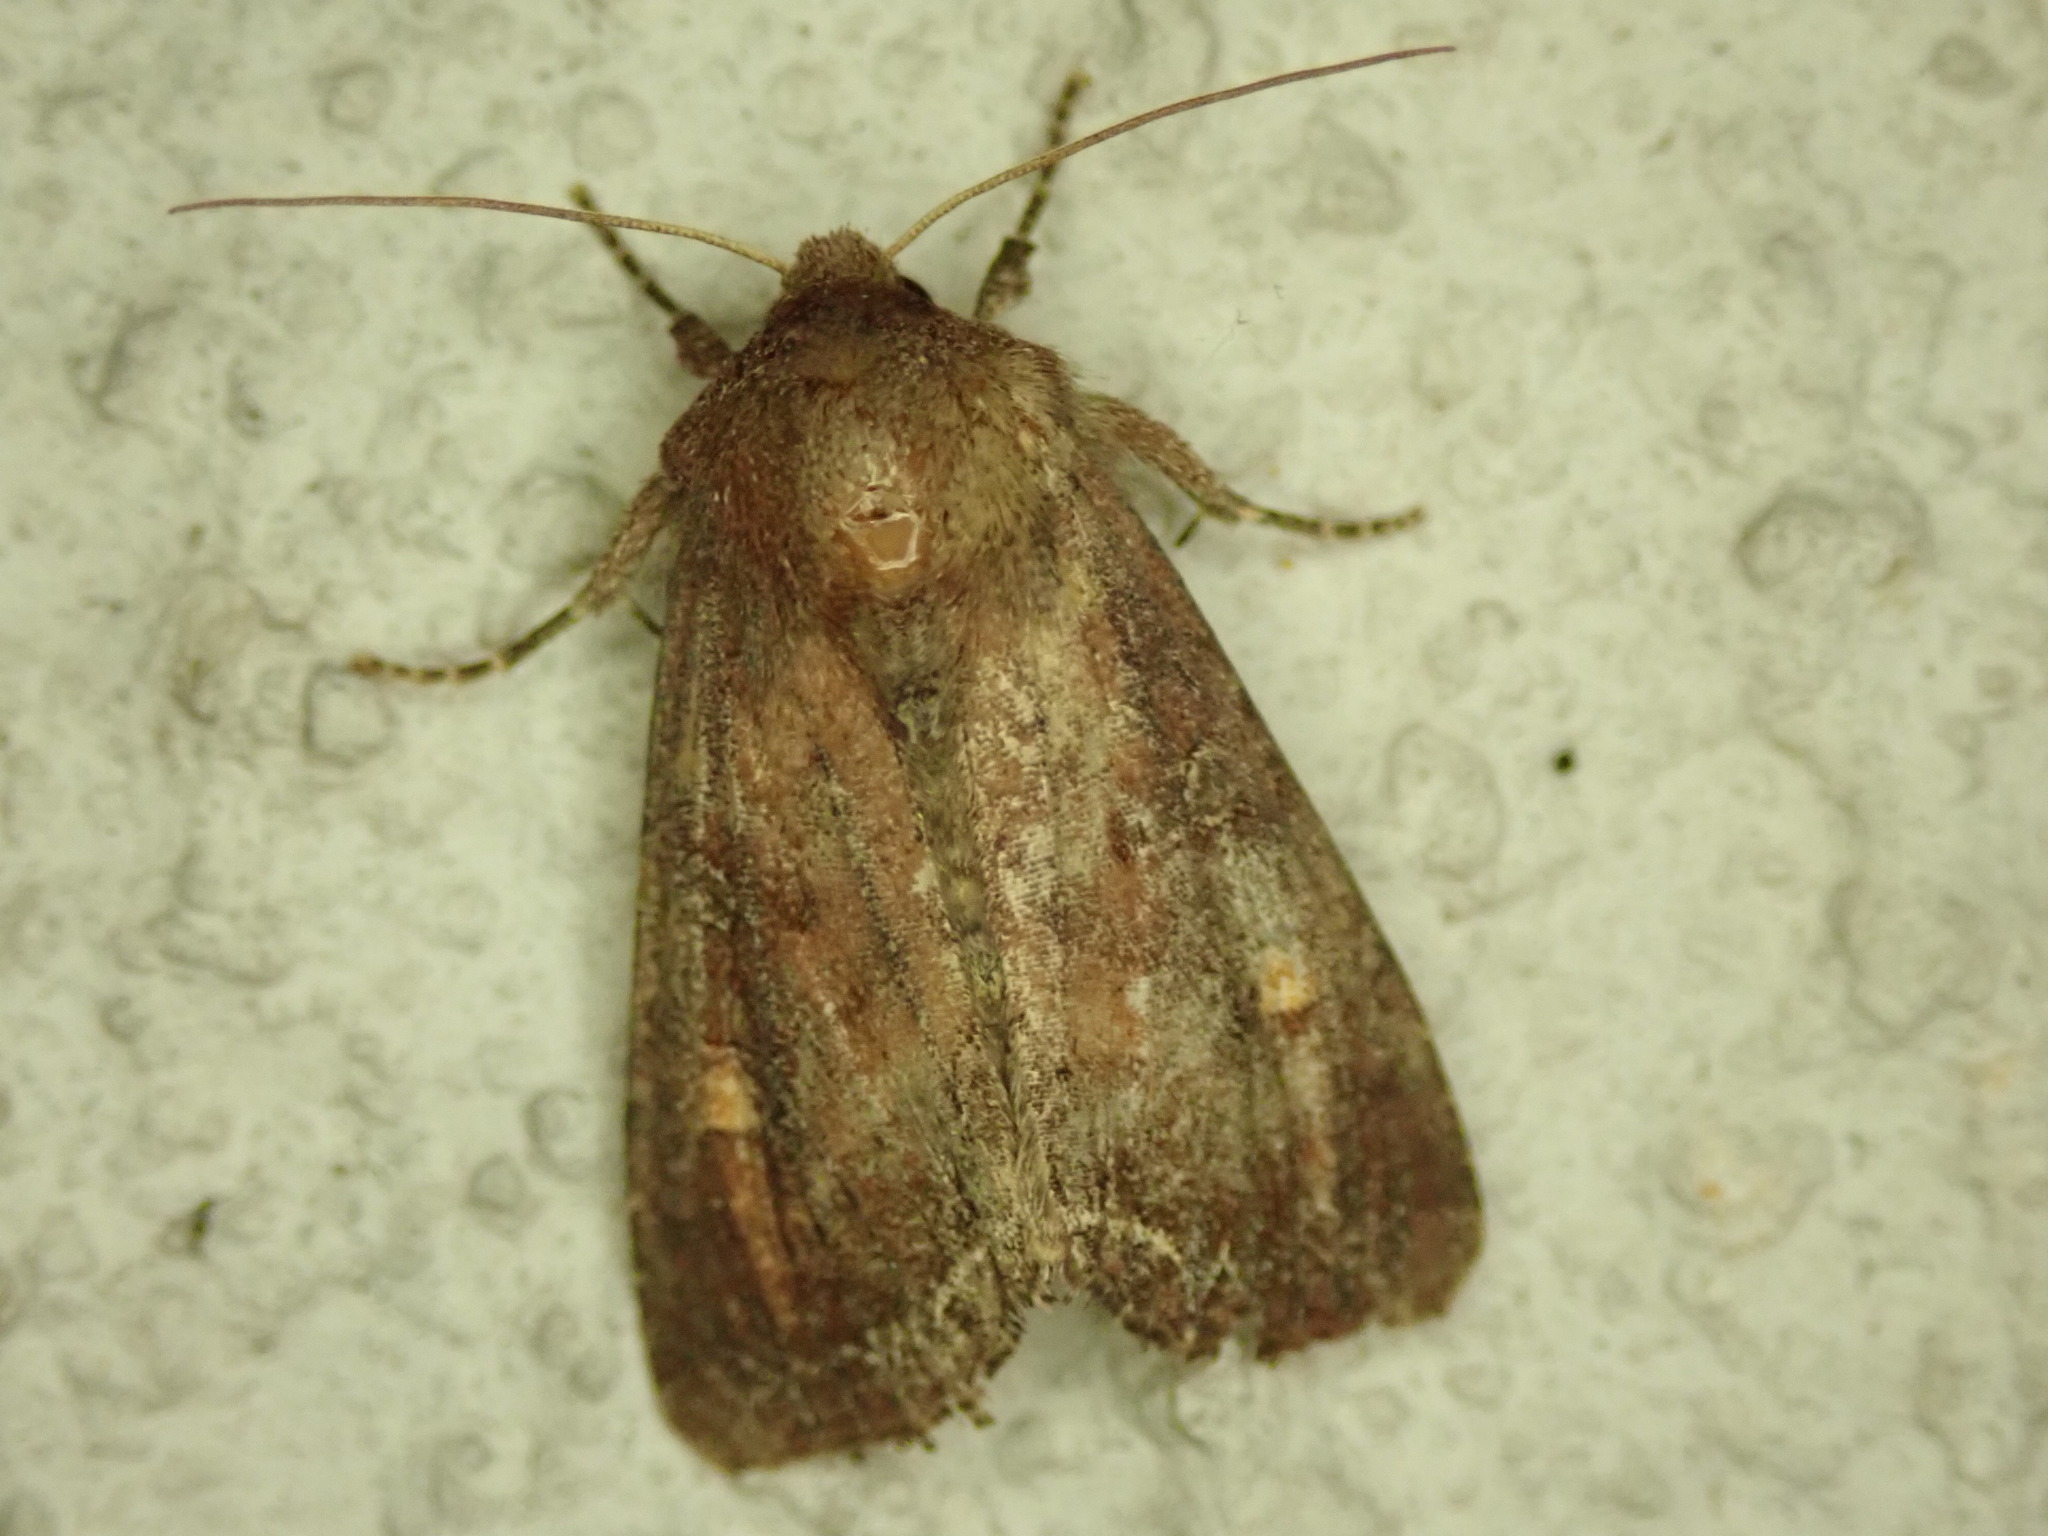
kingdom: Animalia
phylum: Arthropoda
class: Insecta
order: Lepidoptera
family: Noctuidae
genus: Lacanobia
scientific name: Lacanobia oleracea
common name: Bright-line brown-eye
